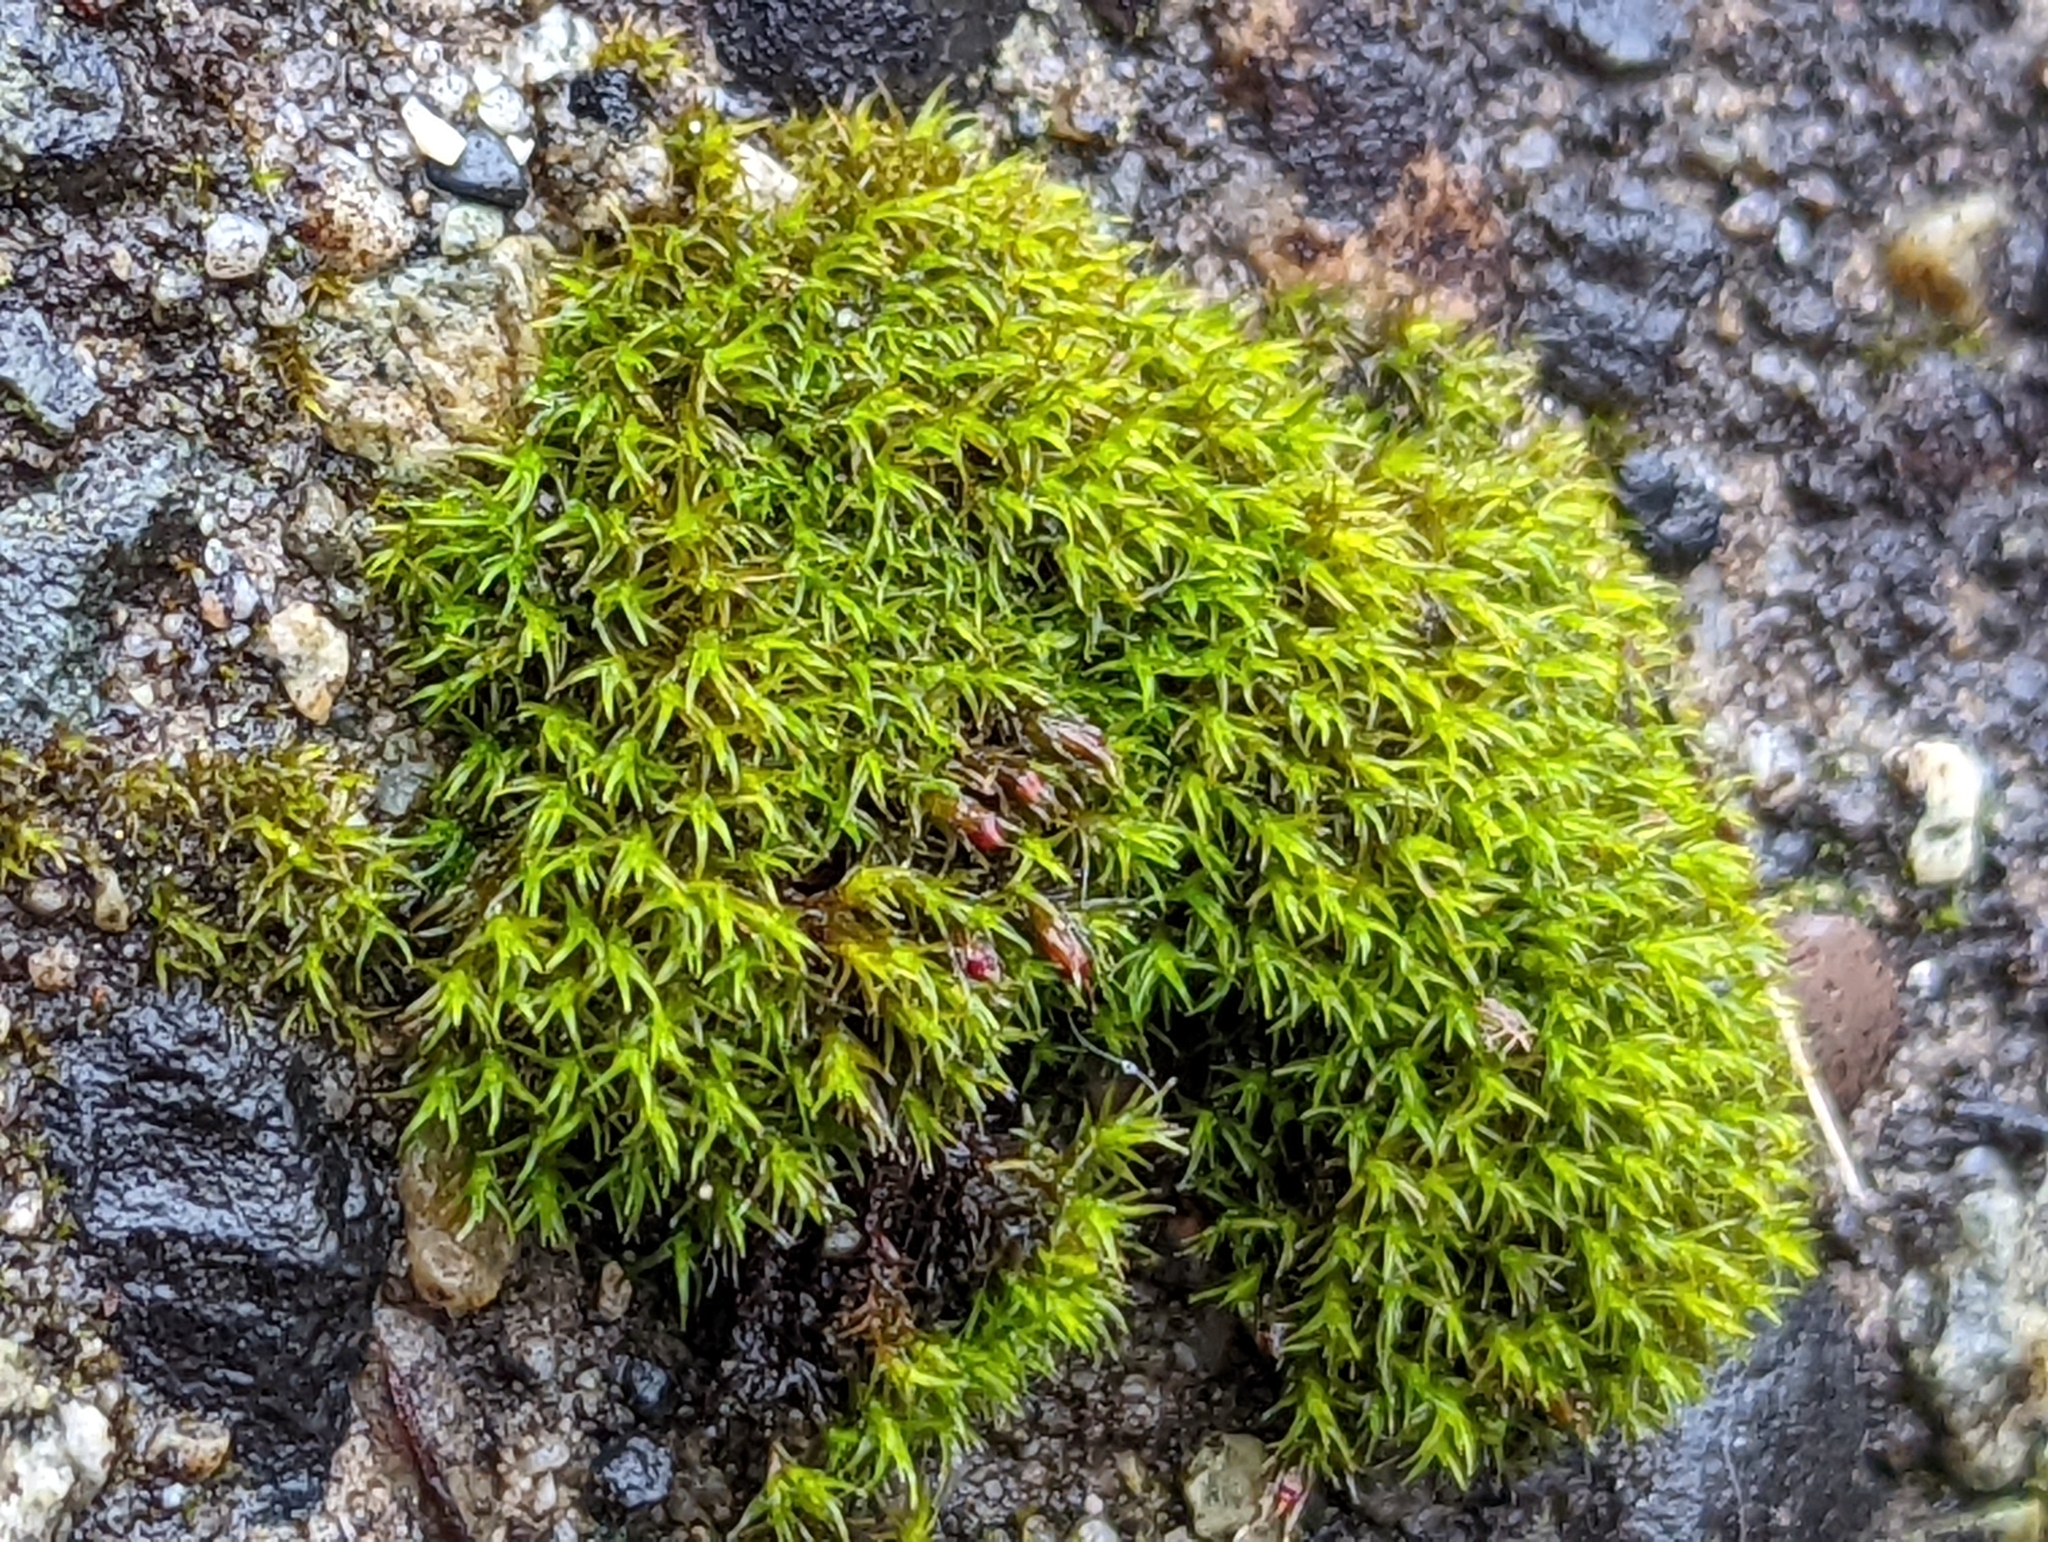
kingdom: Plantae
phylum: Bryophyta
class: Bryopsida
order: Grimmiales
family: Grimmiaceae
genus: Schistidium
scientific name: Schistidium papillosum
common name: Papillose bloom moss
